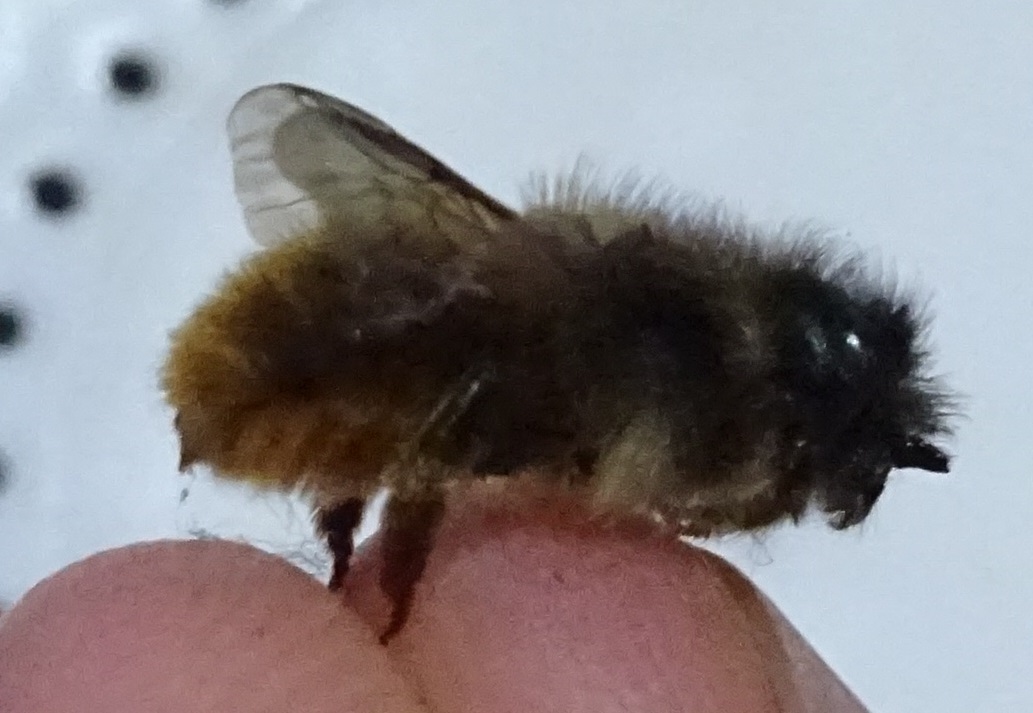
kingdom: Animalia
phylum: Arthropoda
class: Insecta
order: Hymenoptera
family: Megachilidae
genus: Osmia
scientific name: Osmia bicornis
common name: Red mason bee
